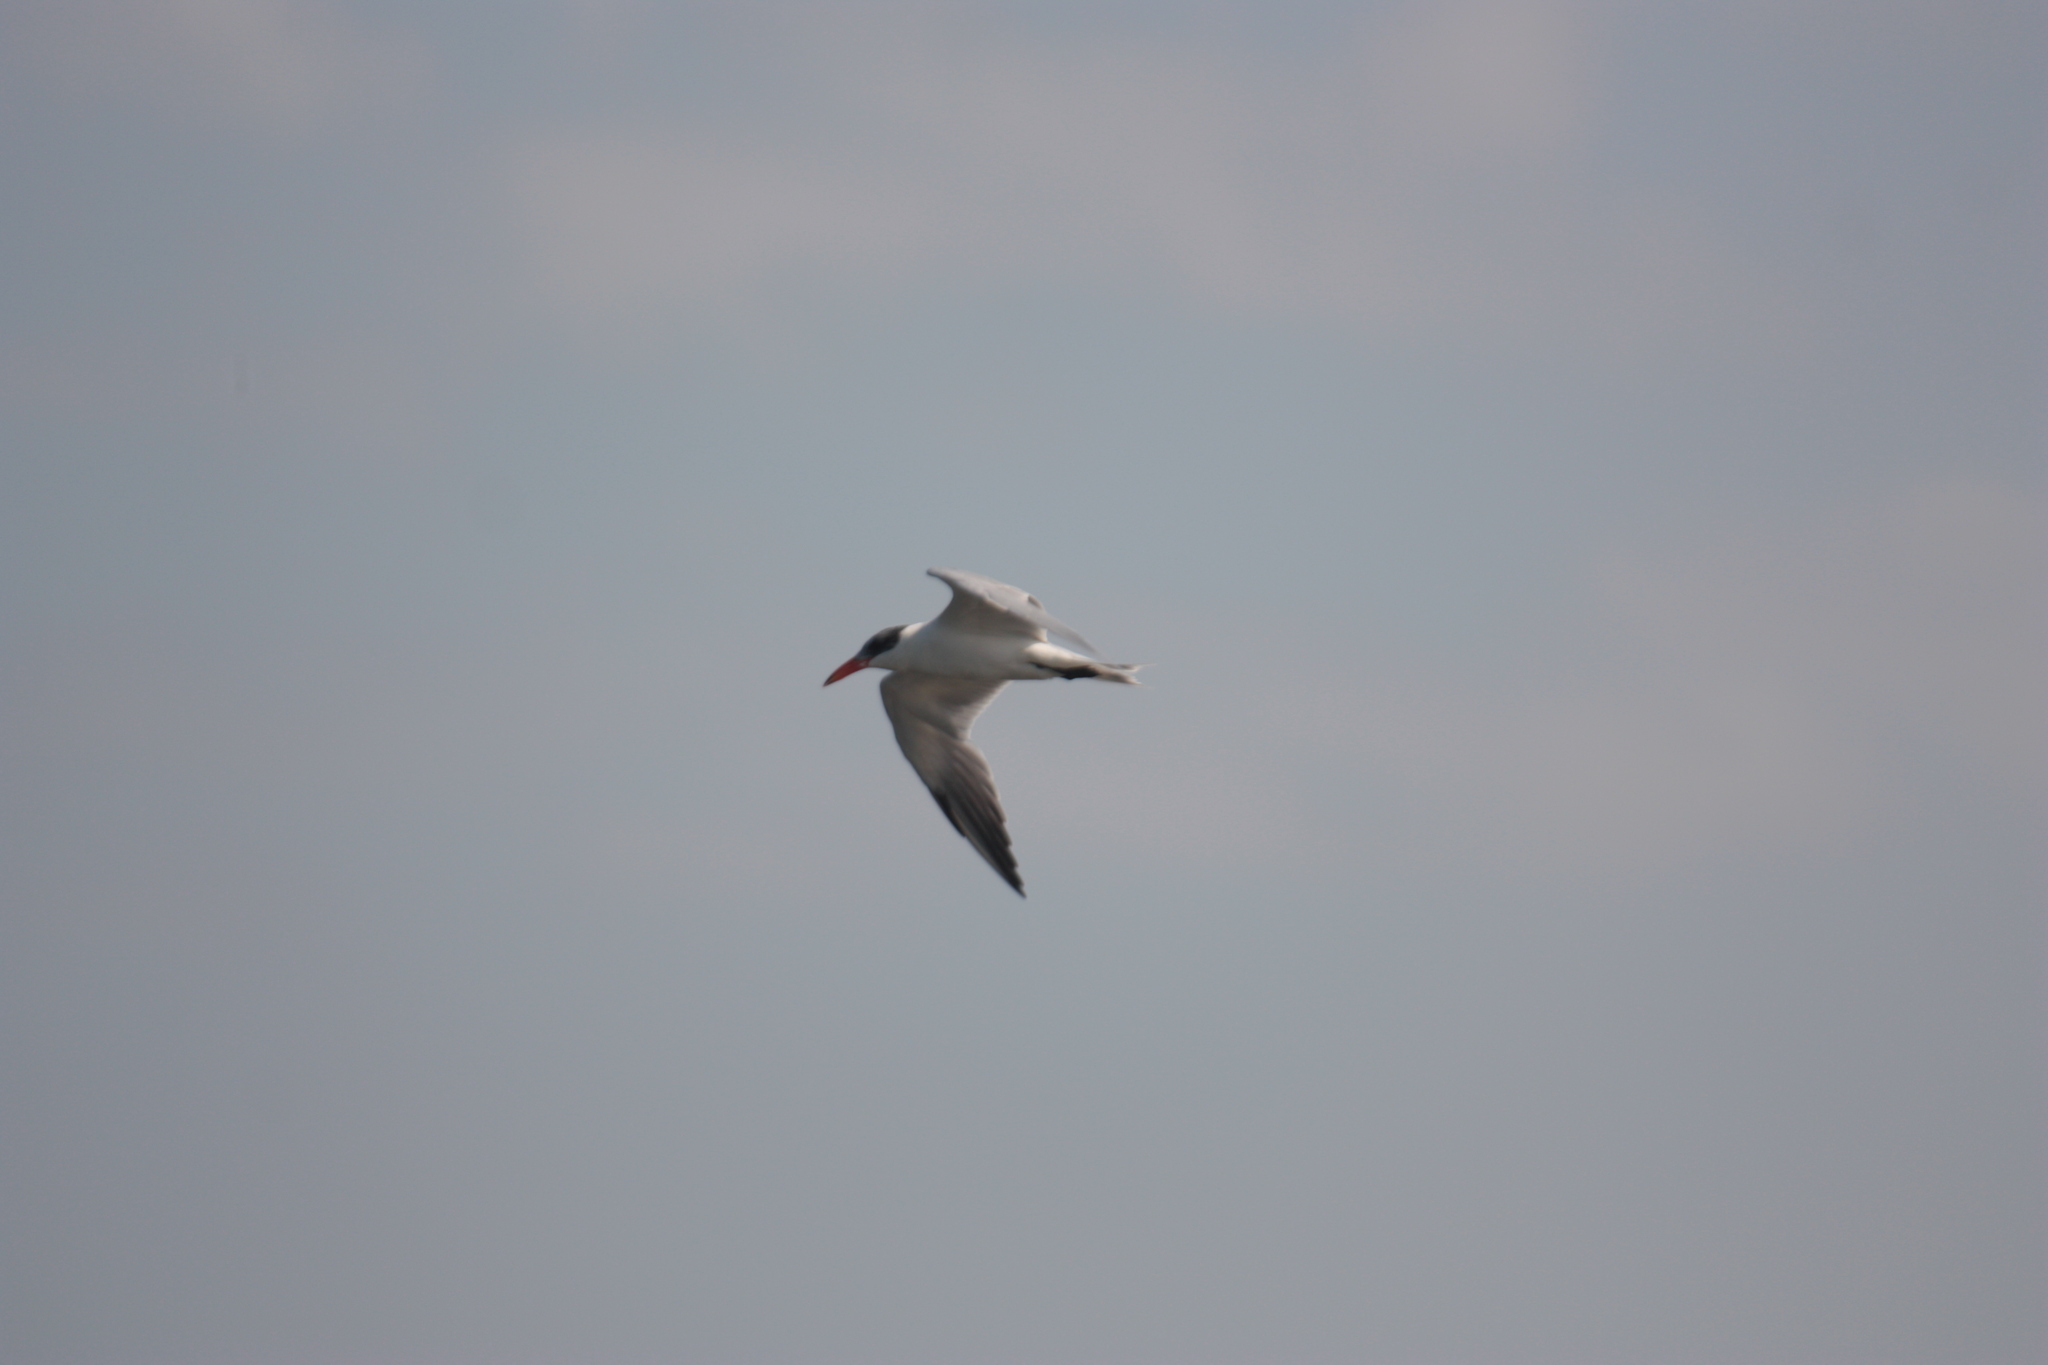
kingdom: Animalia
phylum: Chordata
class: Aves
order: Charadriiformes
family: Laridae
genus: Hydroprogne
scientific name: Hydroprogne caspia
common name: Caspian tern
